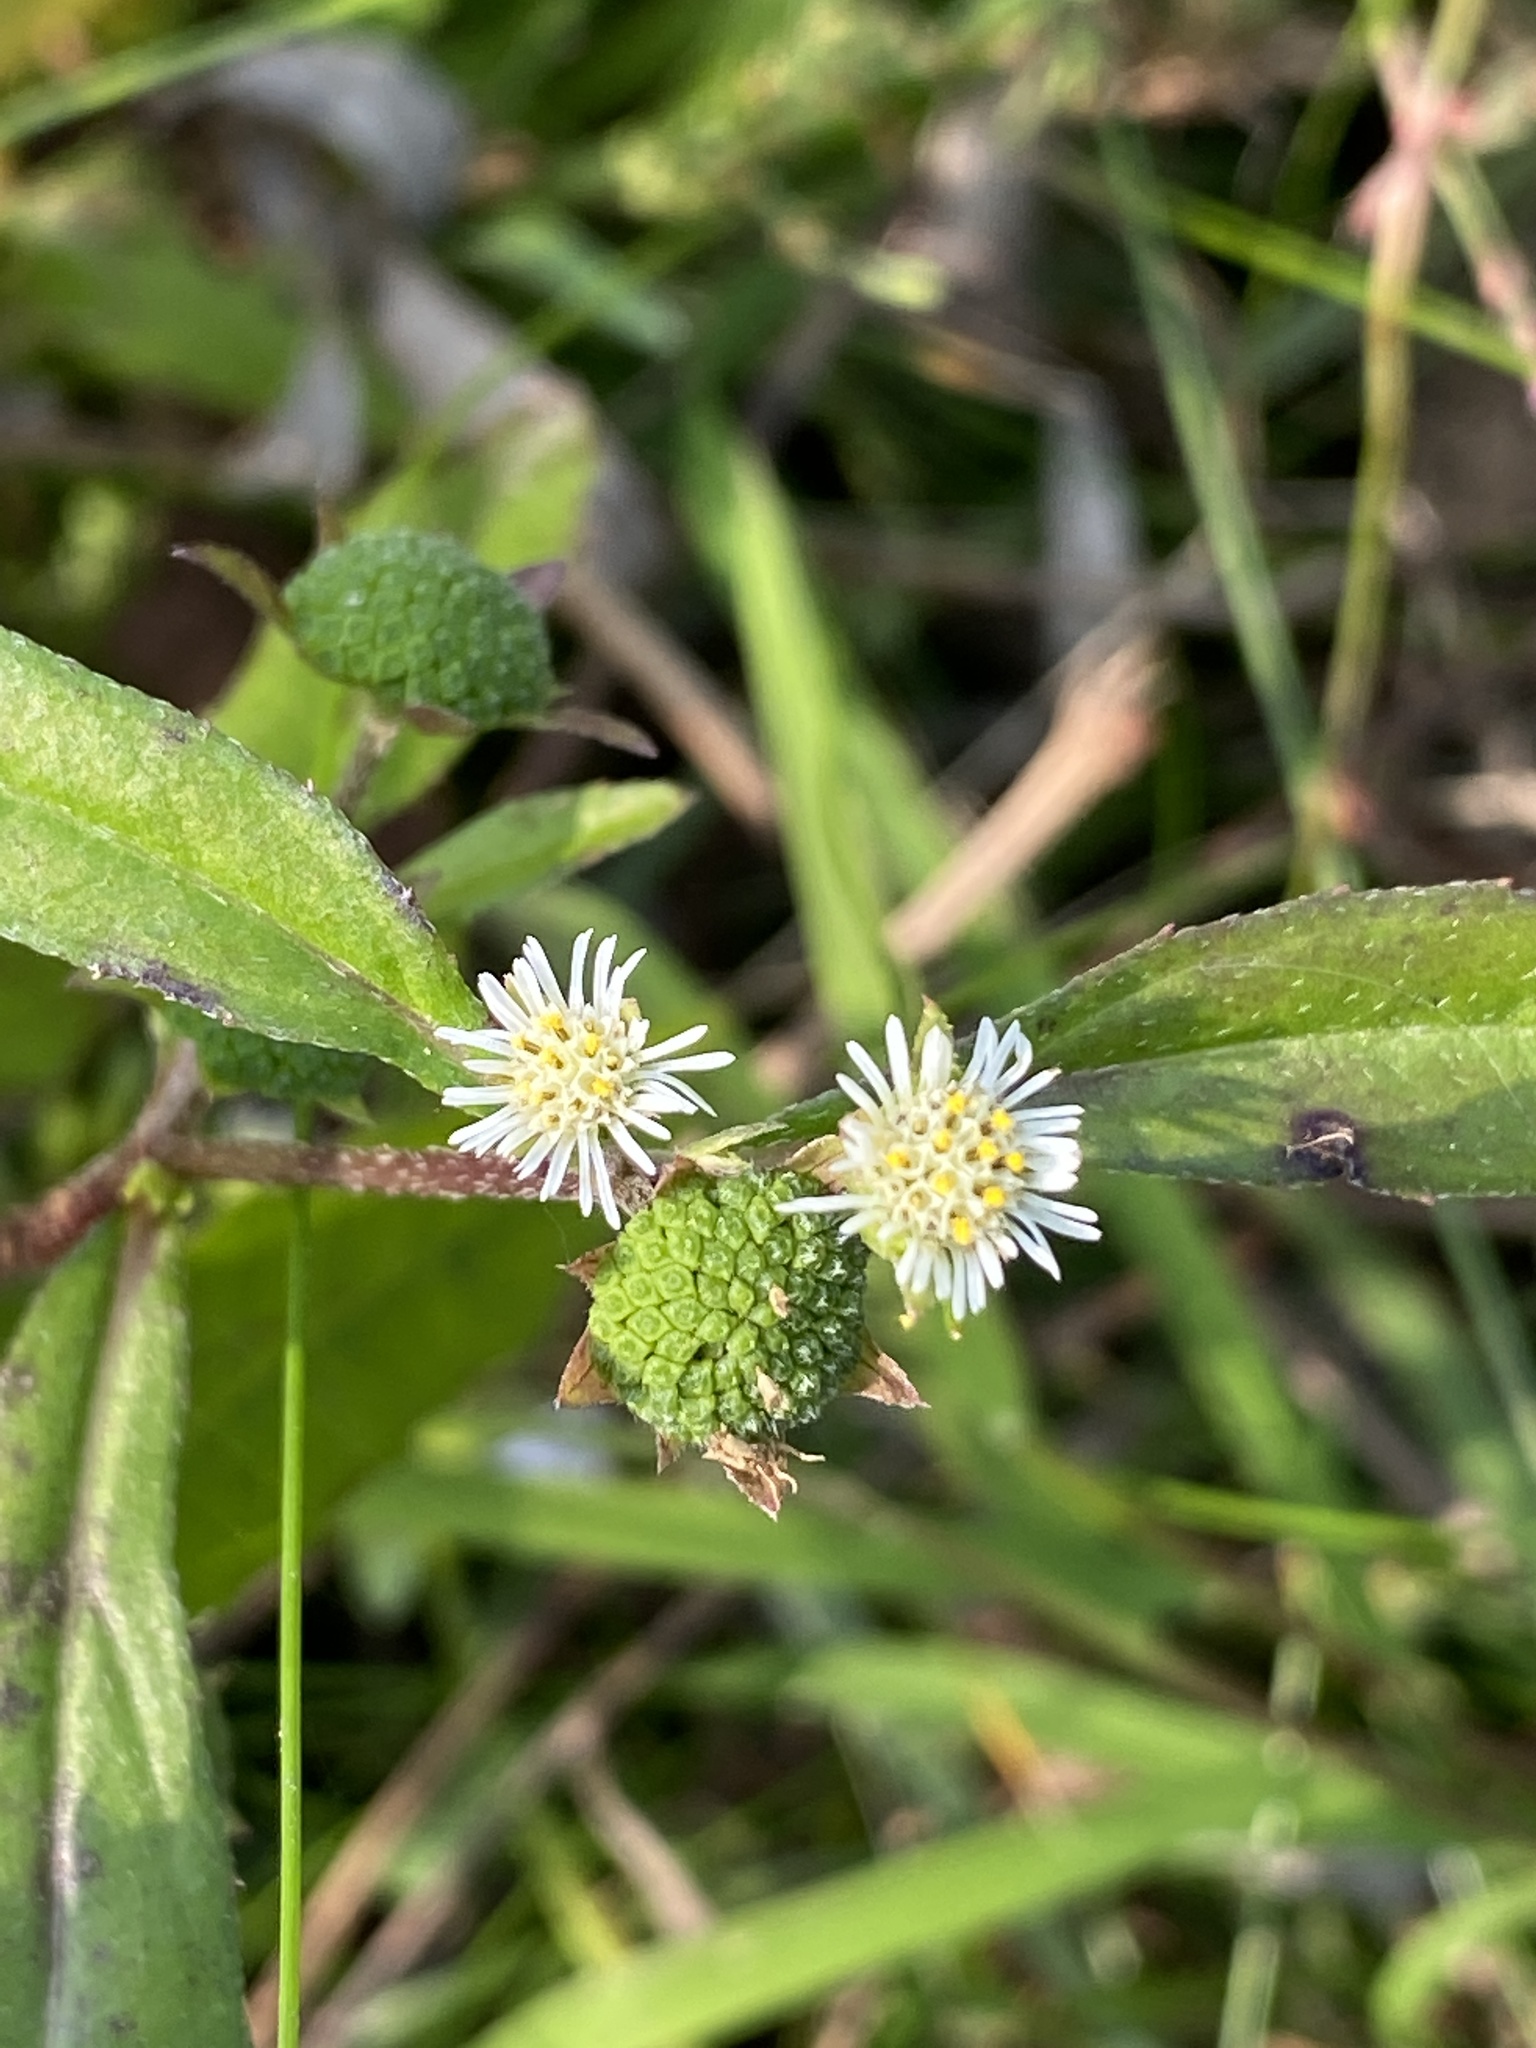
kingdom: Plantae
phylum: Tracheophyta
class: Magnoliopsida
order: Asterales
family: Asteraceae
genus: Eclipta
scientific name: Eclipta prostrata
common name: False daisy
